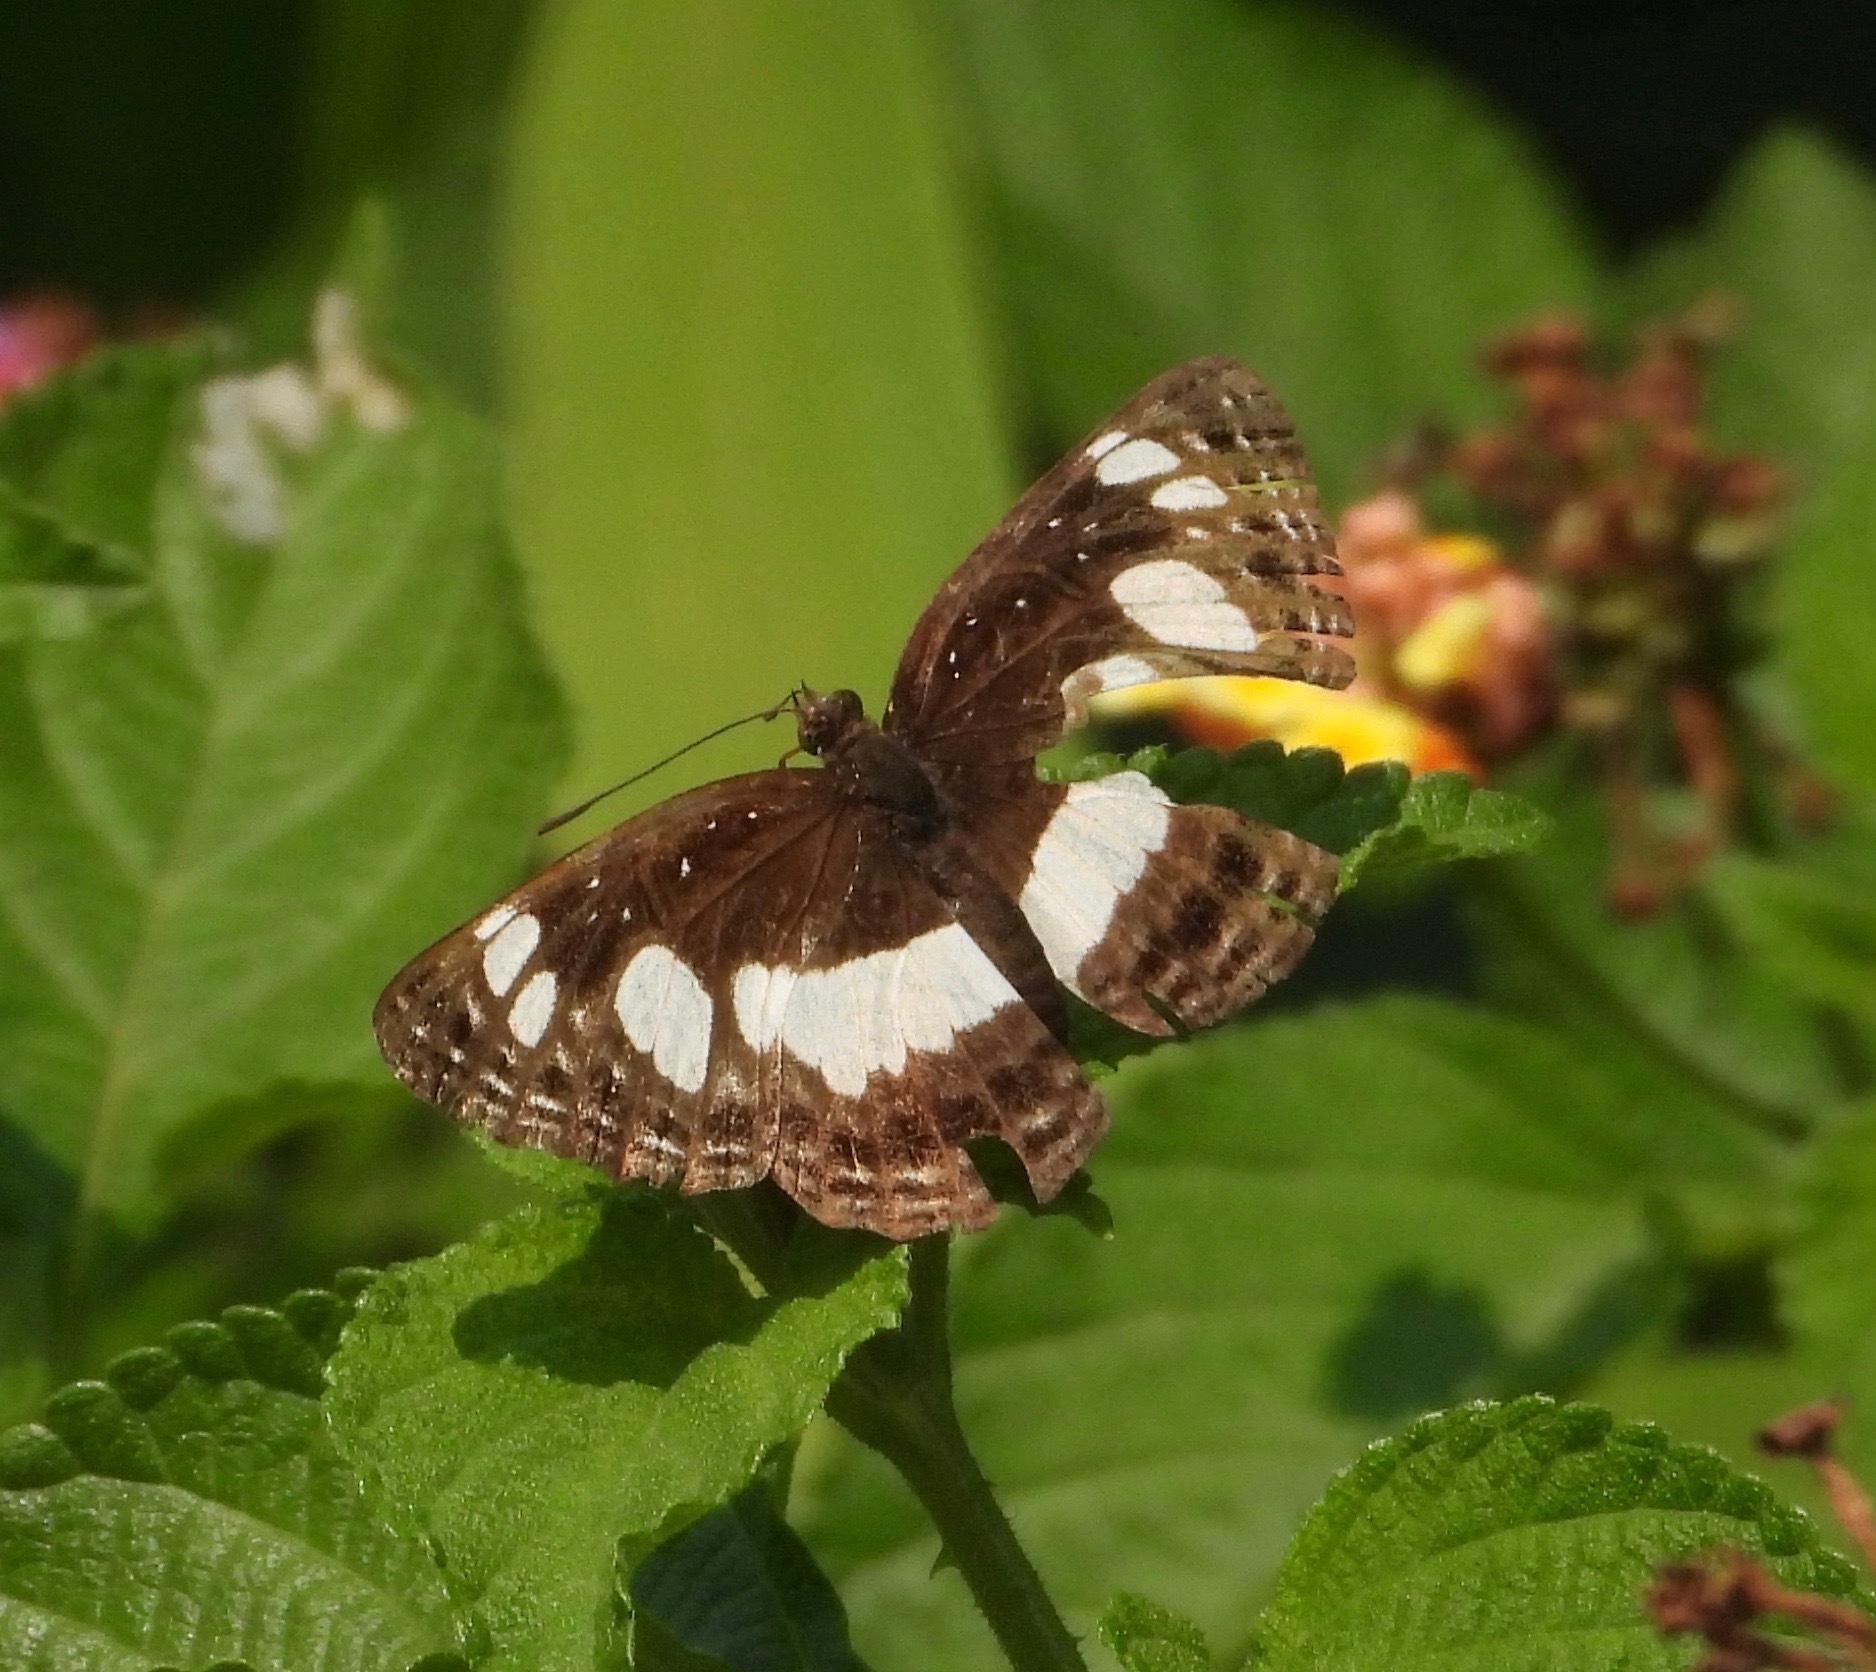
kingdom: Animalia
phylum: Arthropoda
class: Insecta
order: Lepidoptera
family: Nymphalidae
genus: Neptis
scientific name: Neptis saclava
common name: Small spotted sailor
